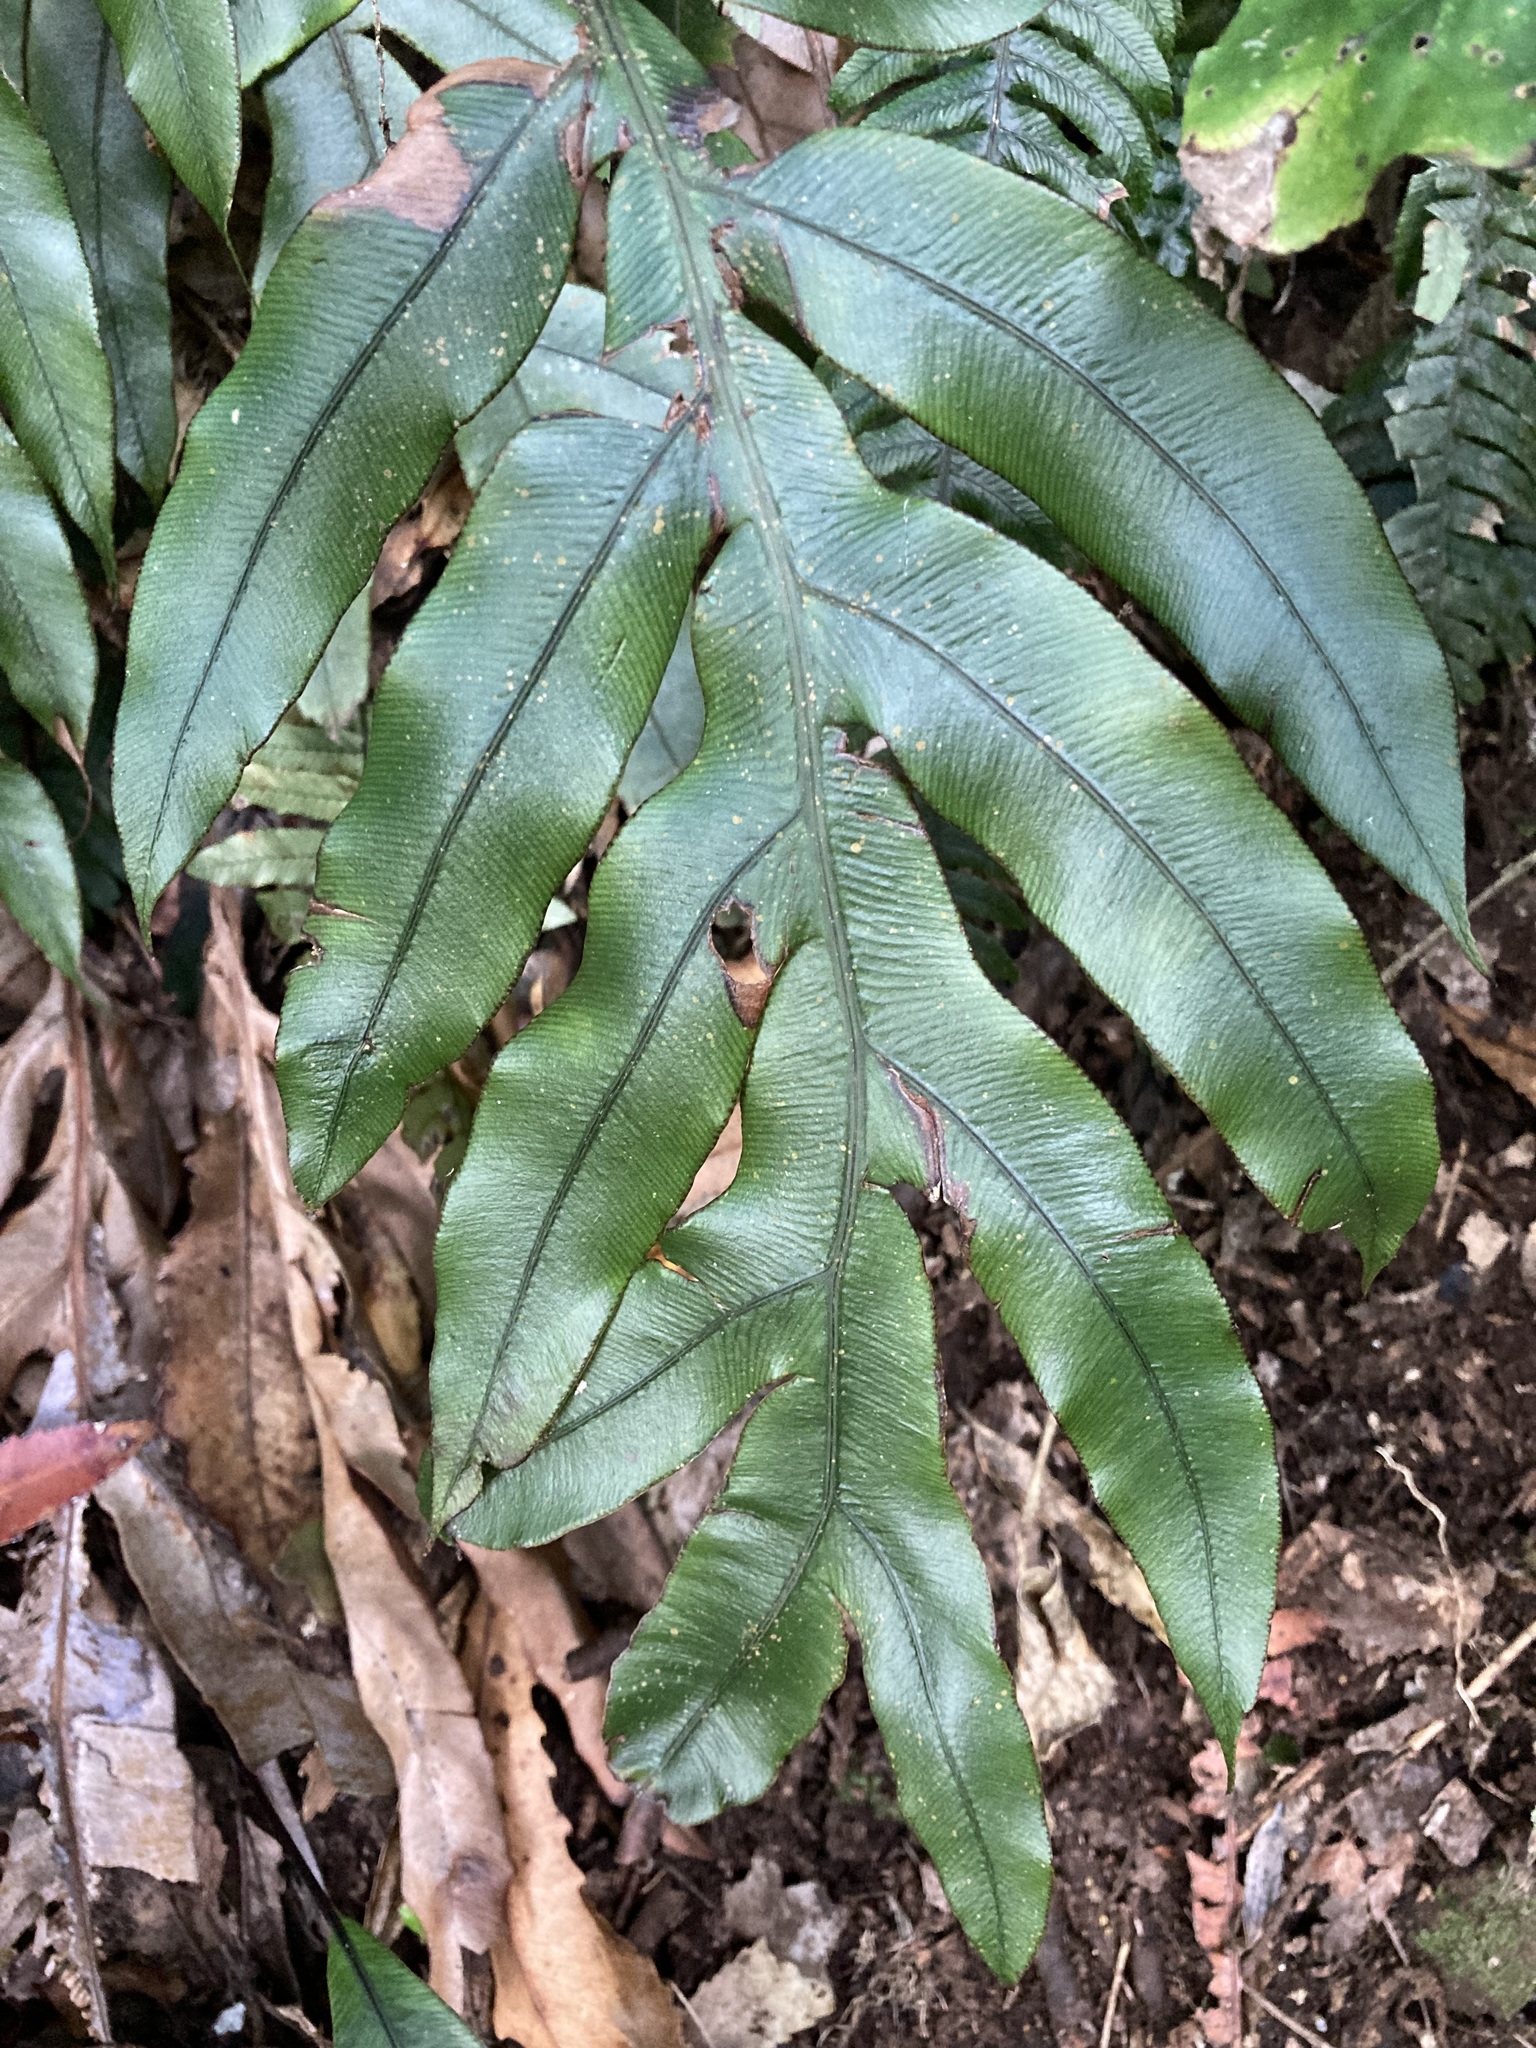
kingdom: Plantae
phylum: Tracheophyta
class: Polypodiopsida
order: Polypodiales
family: Blechnaceae
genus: Austroblechnum
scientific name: Austroblechnum colensoi
